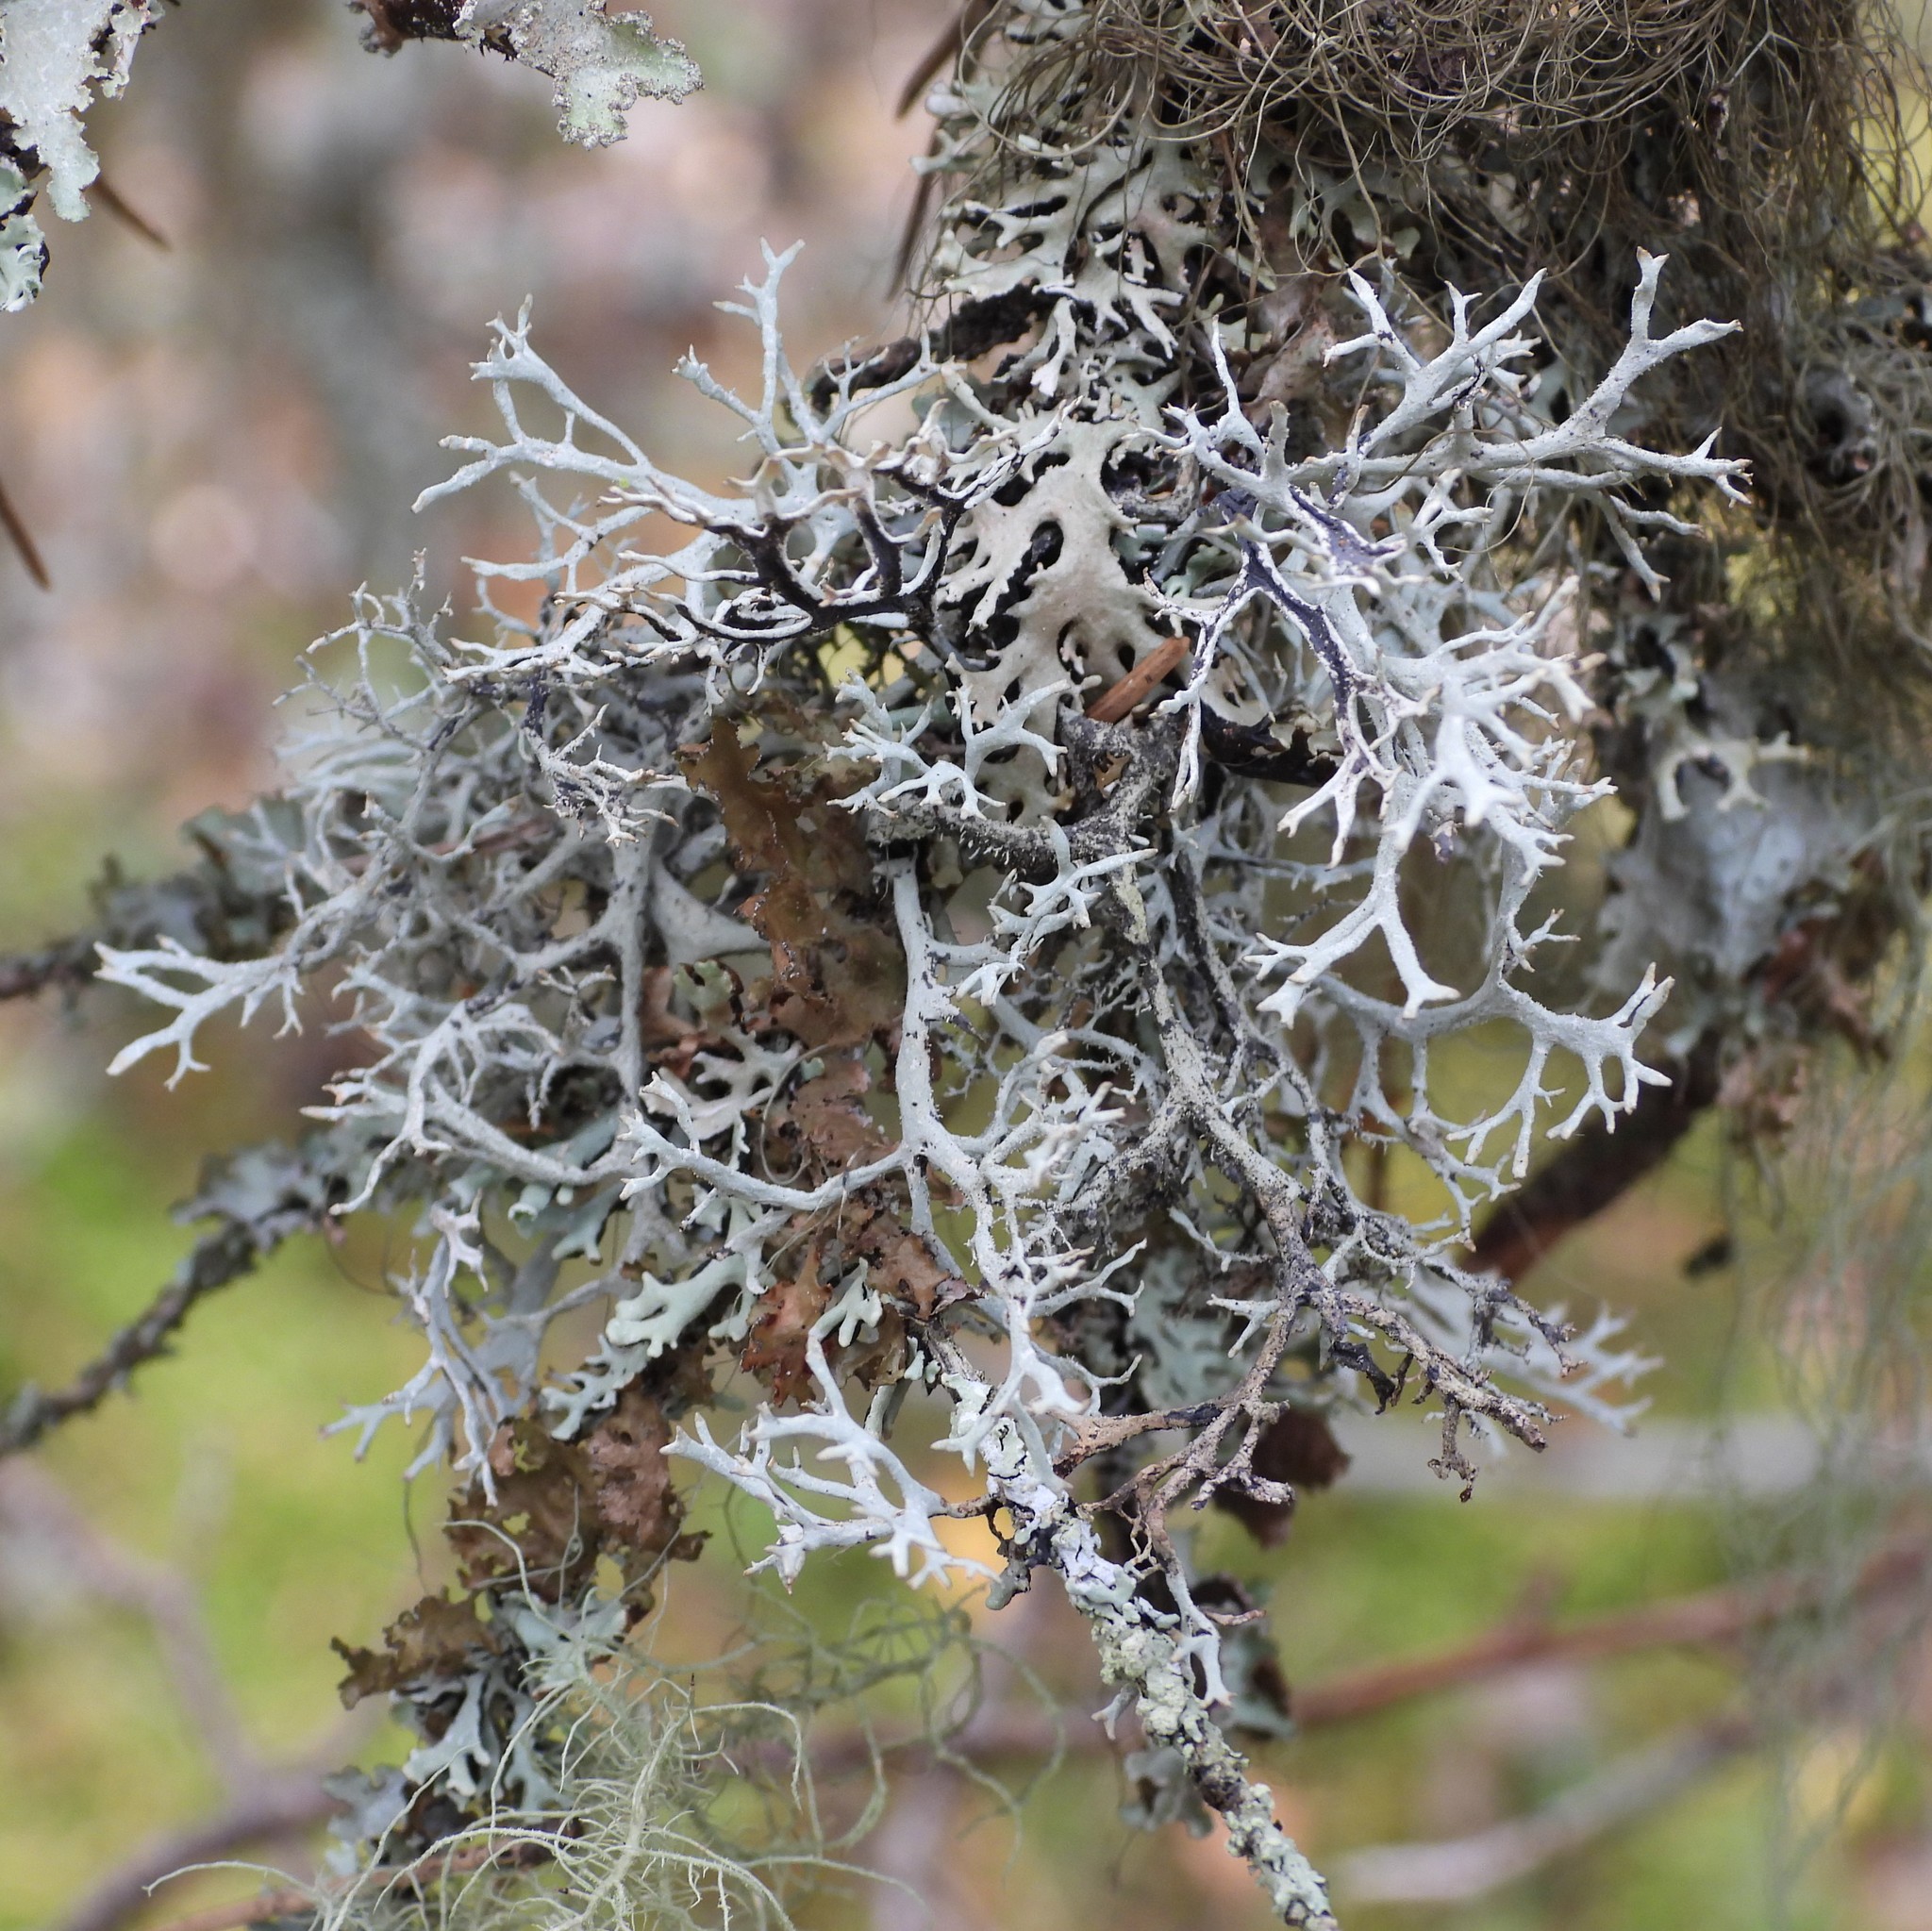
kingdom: Fungi
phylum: Ascomycota
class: Lecanoromycetes
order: Lecanorales
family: Parmeliaceae
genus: Pseudevernia
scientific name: Pseudevernia furfuracea
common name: Tree moss
